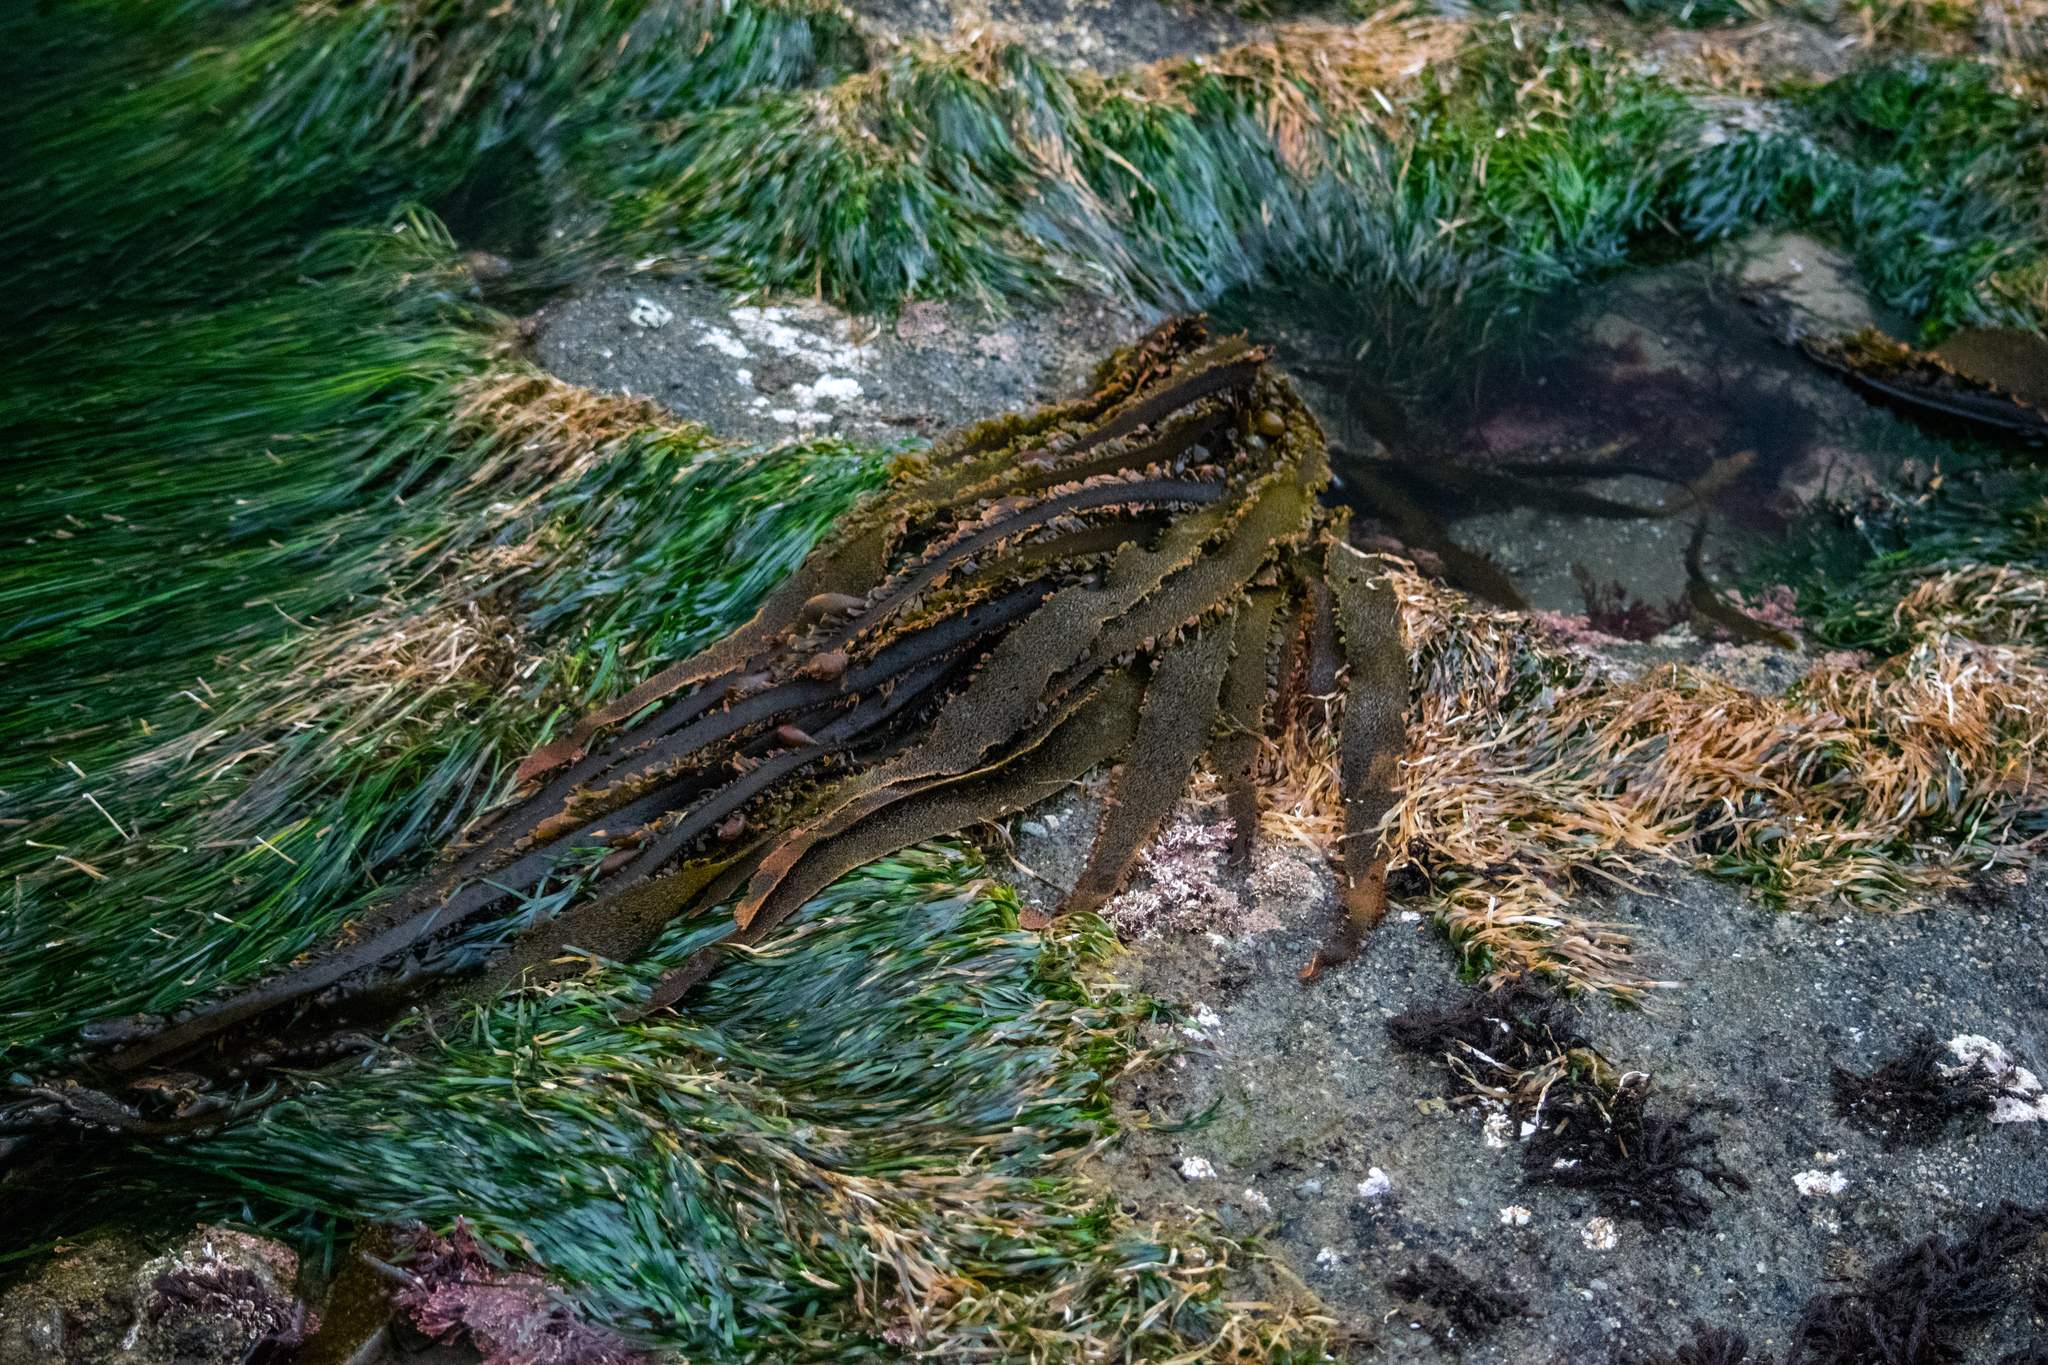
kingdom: Plantae
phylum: Tracheophyta
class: Liliopsida
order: Alismatales
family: Zosteraceae
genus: Phyllospadix
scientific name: Phyllospadix scouleri
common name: Species code: ps
